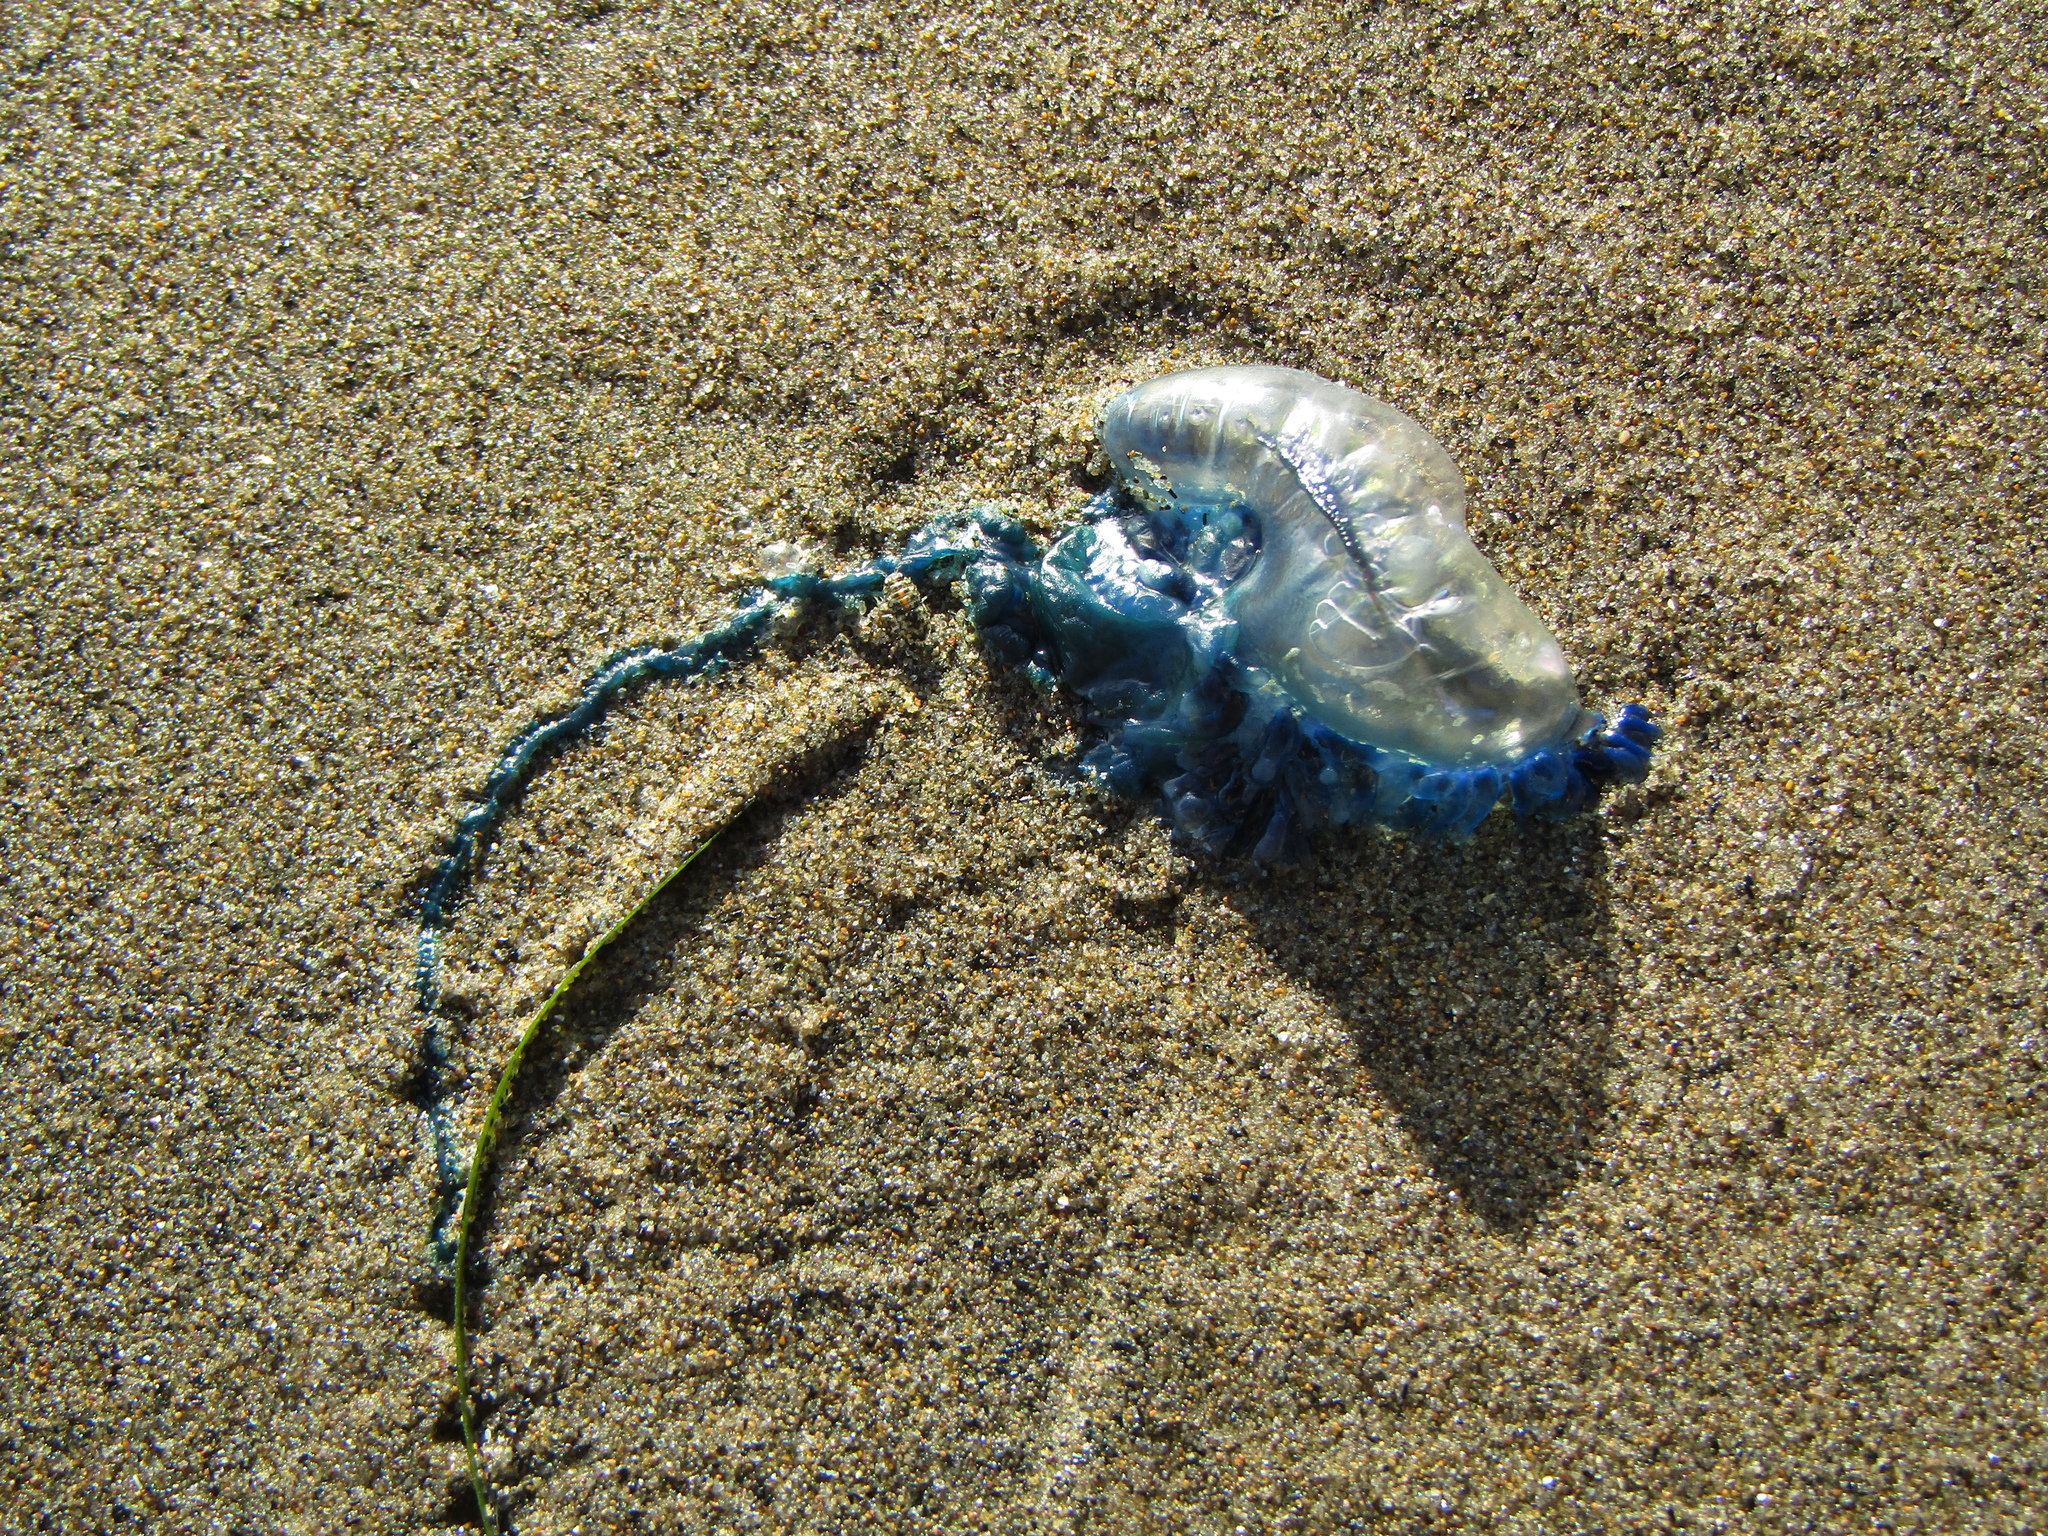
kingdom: Animalia
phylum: Cnidaria
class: Hydrozoa
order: Siphonophorae
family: Physaliidae
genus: Physalia
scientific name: Physalia physalis
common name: Portuguese man-of-war
